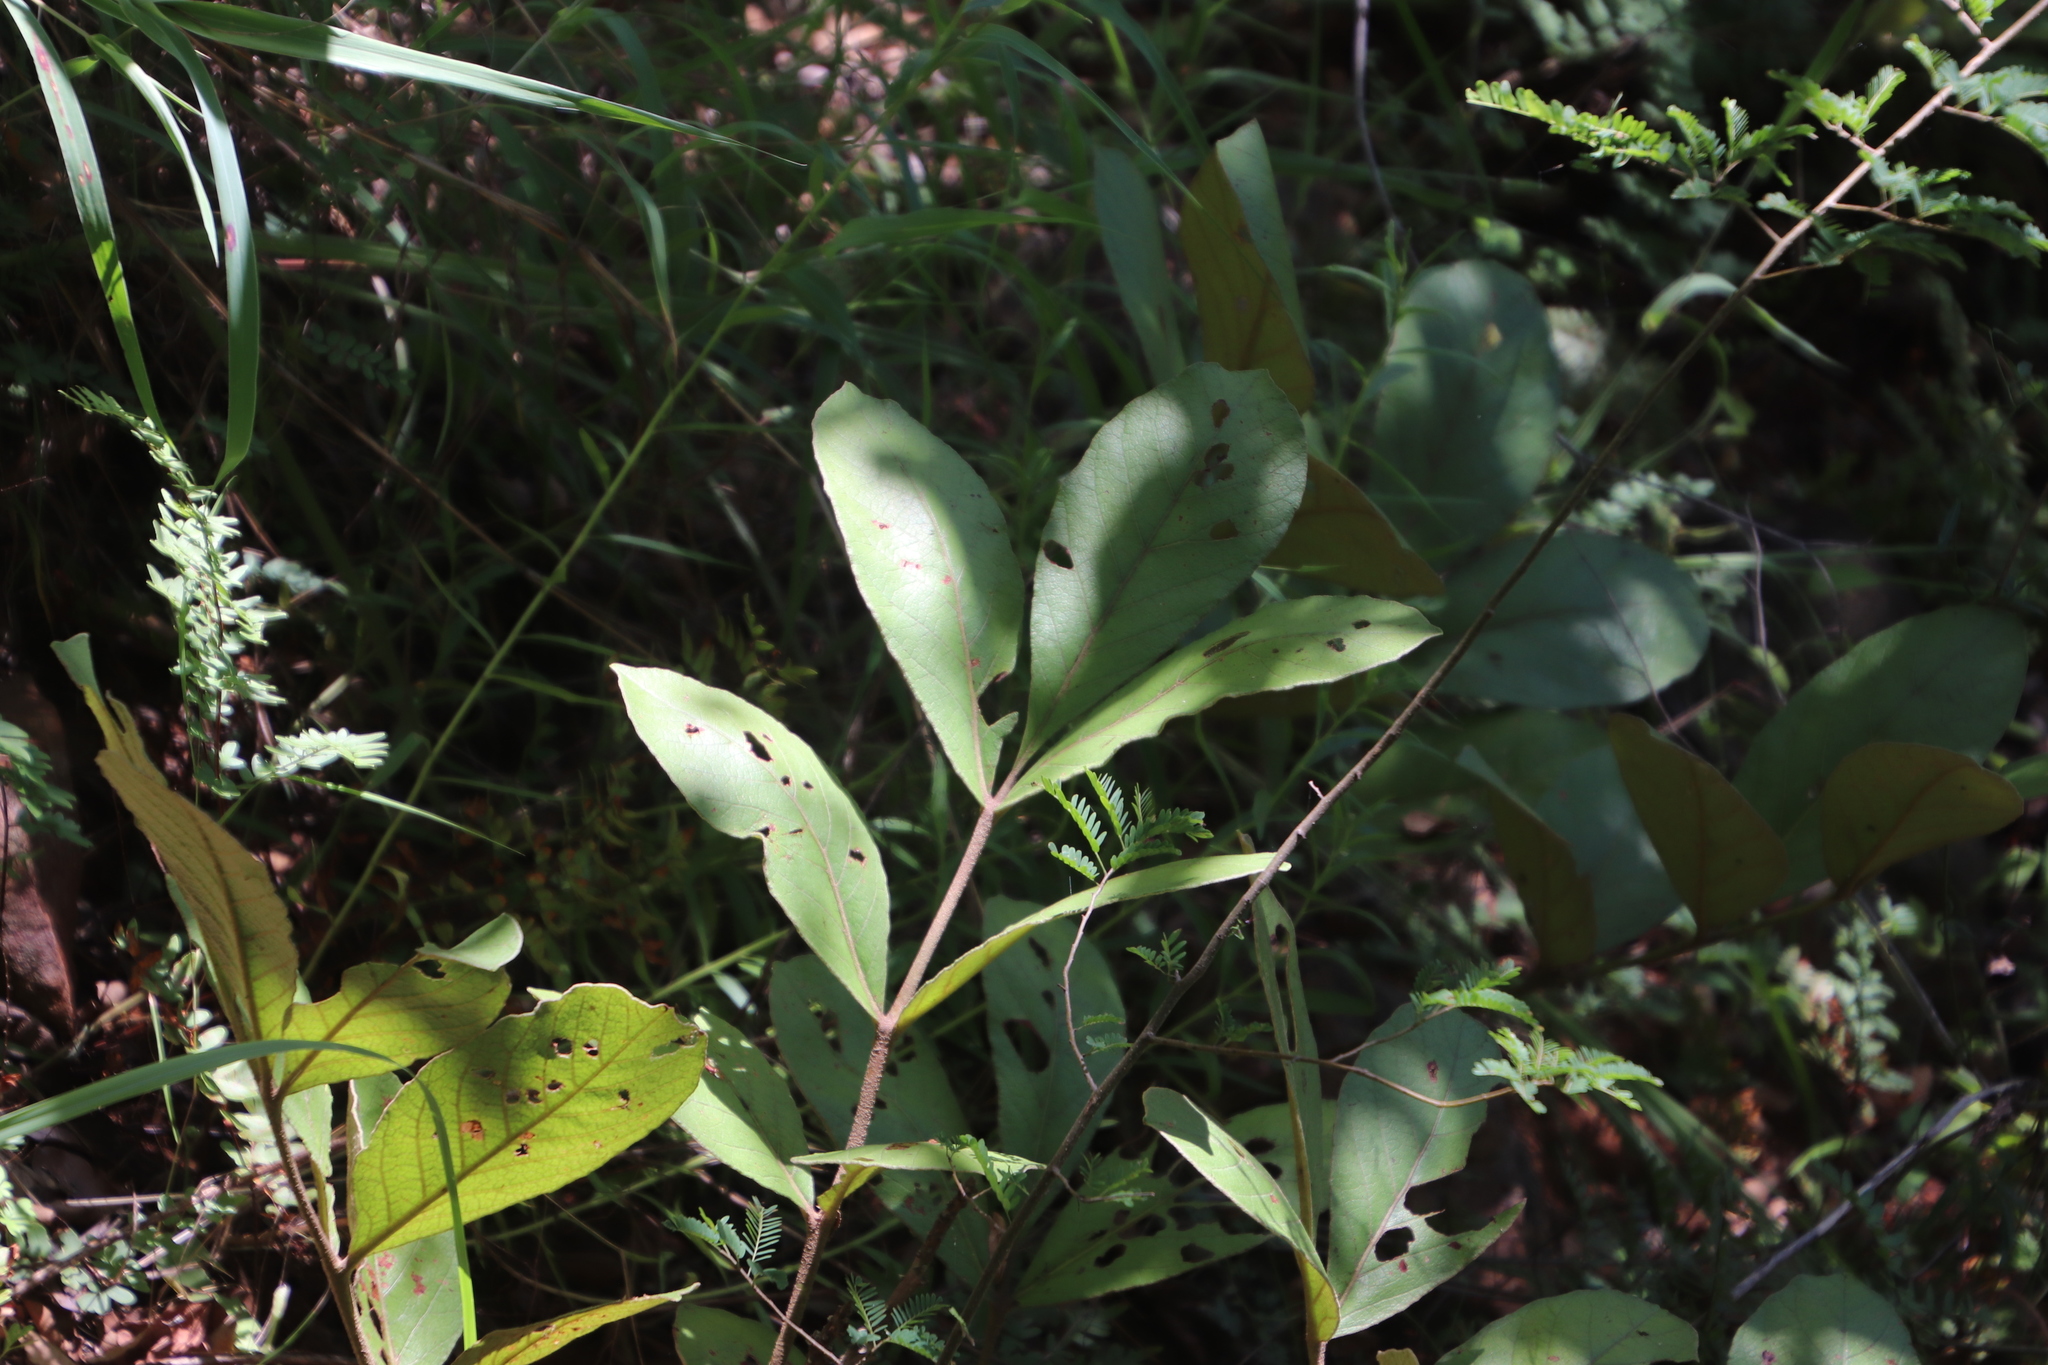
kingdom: Plantae
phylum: Tracheophyta
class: Magnoliopsida
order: Sapindales
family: Anacardiaceae
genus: Lannea
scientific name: Lannea edulis
